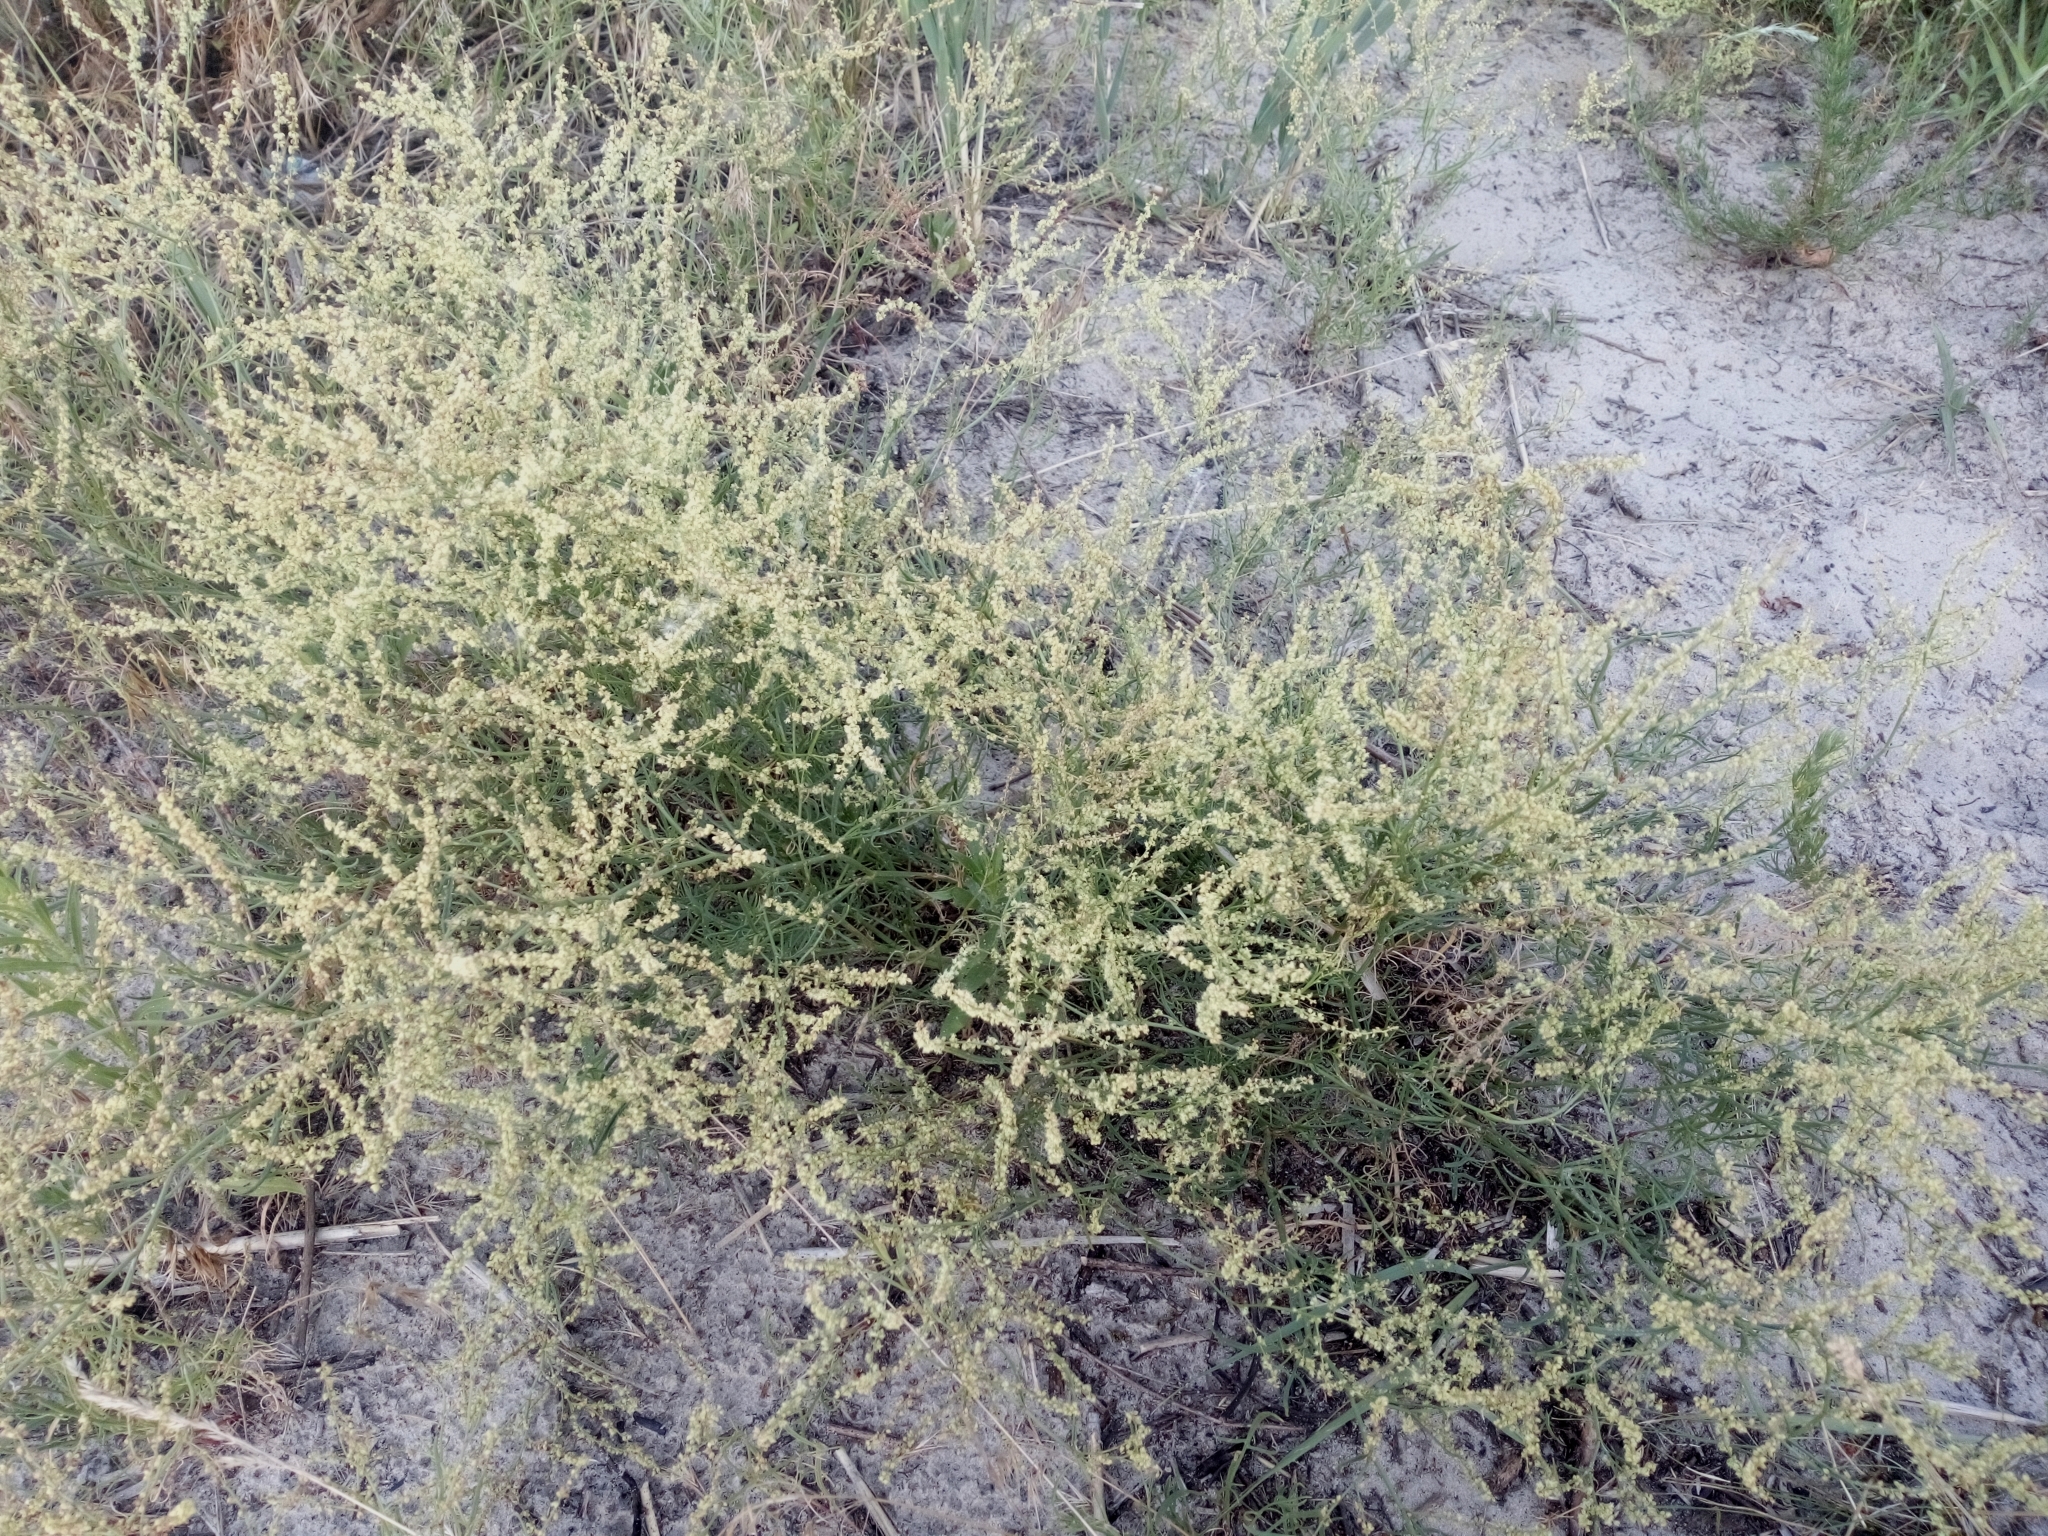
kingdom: Plantae
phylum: Tracheophyta
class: Magnoliopsida
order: Caryophyllales
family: Polygonaceae
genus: Rumex
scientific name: Rumex acetosella
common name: Common sheep sorrel
